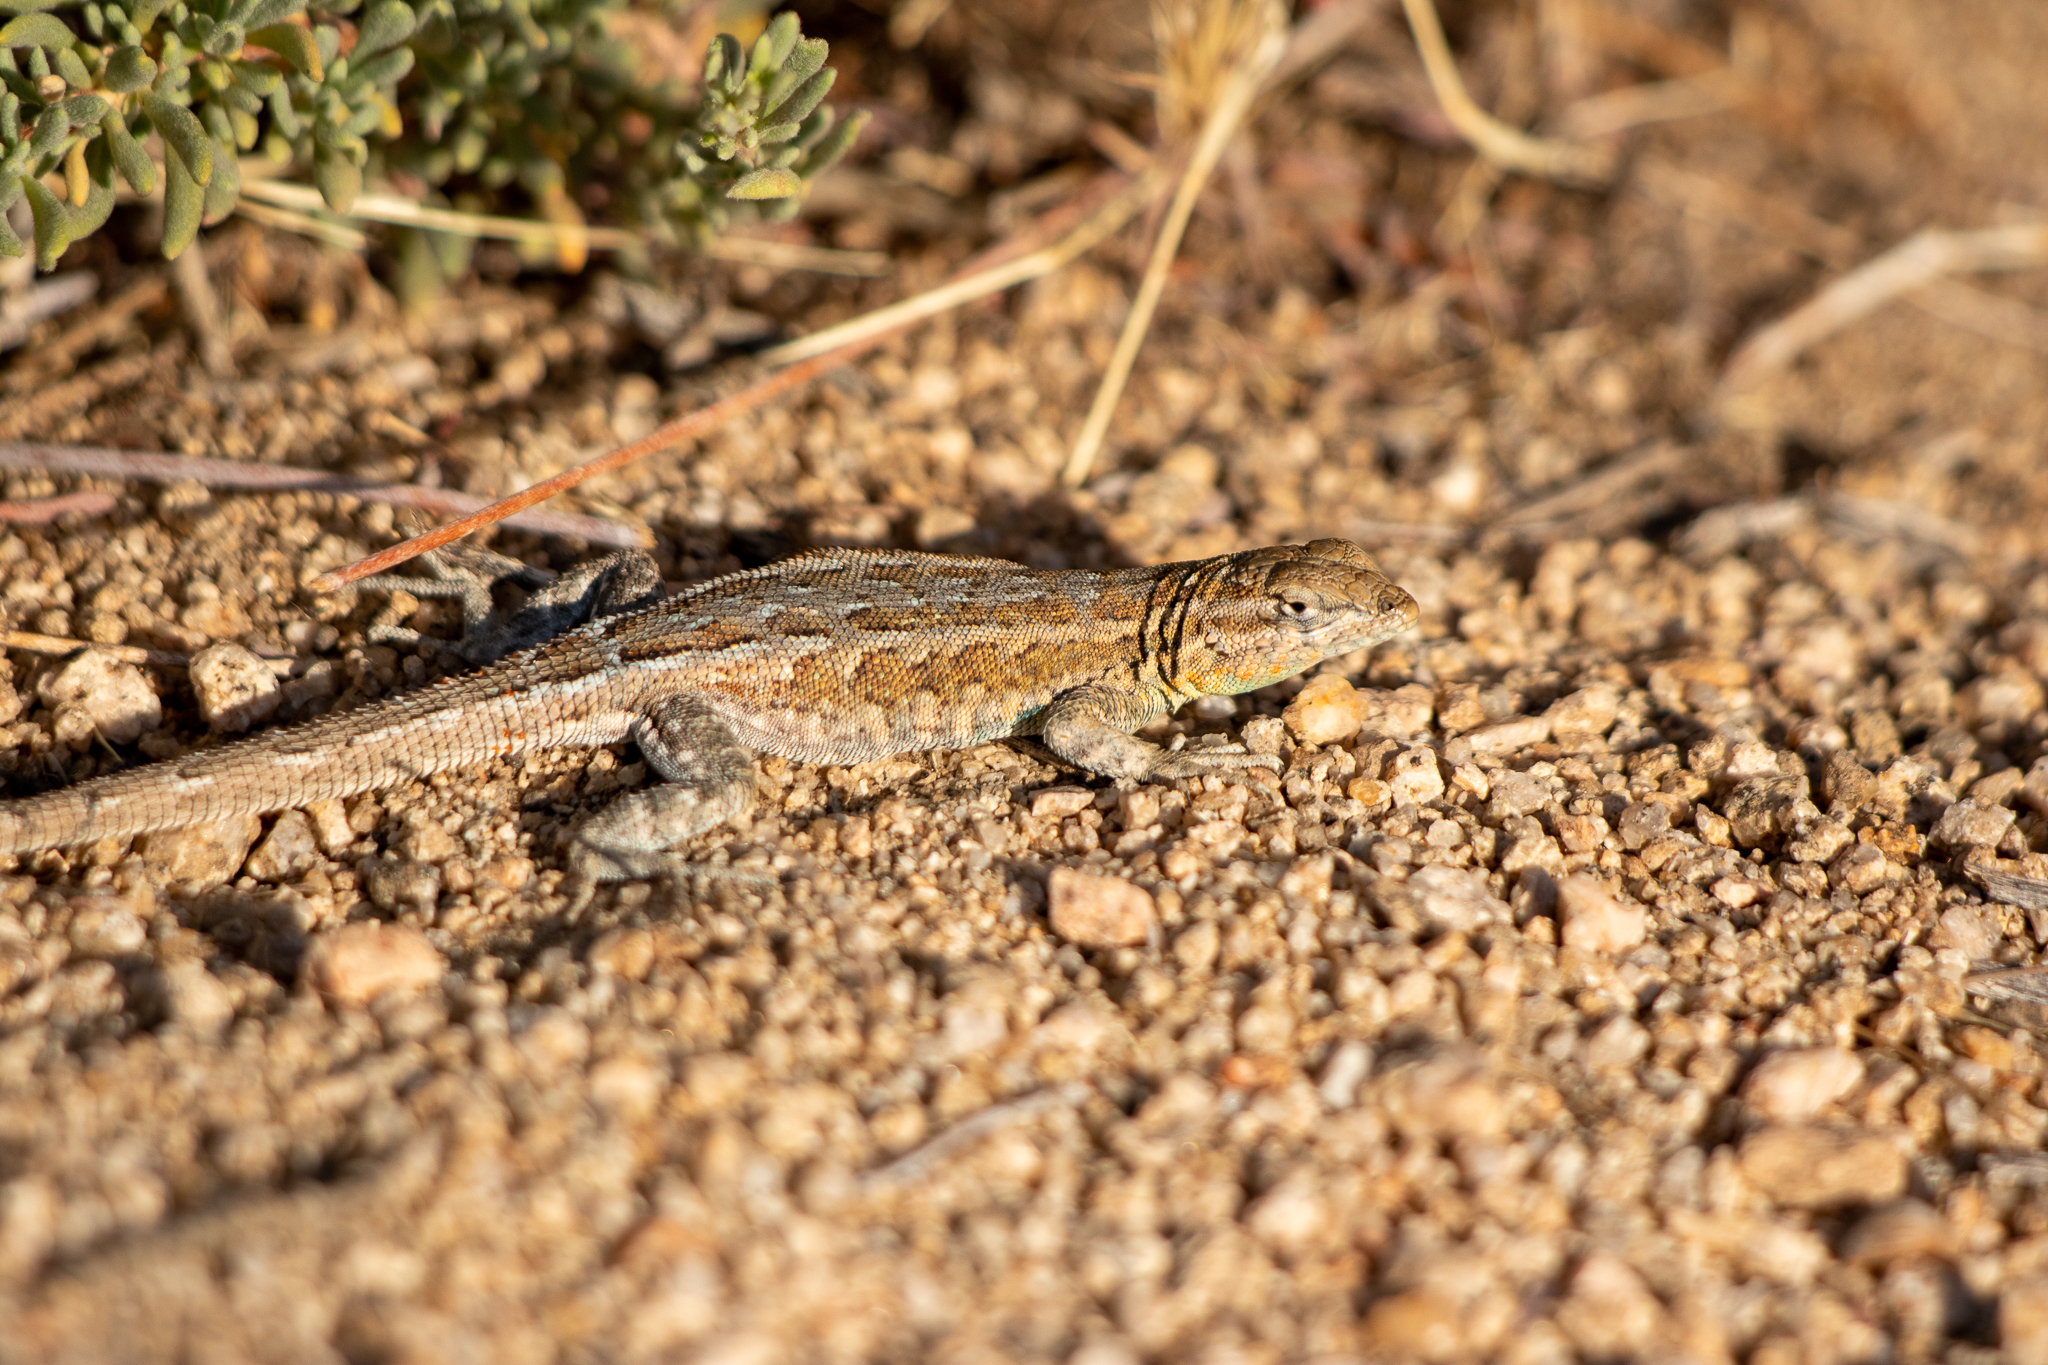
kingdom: Animalia
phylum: Chordata
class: Squamata
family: Phrynosomatidae
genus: Uta
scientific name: Uta stansburiana
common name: Side-blotched lizard
